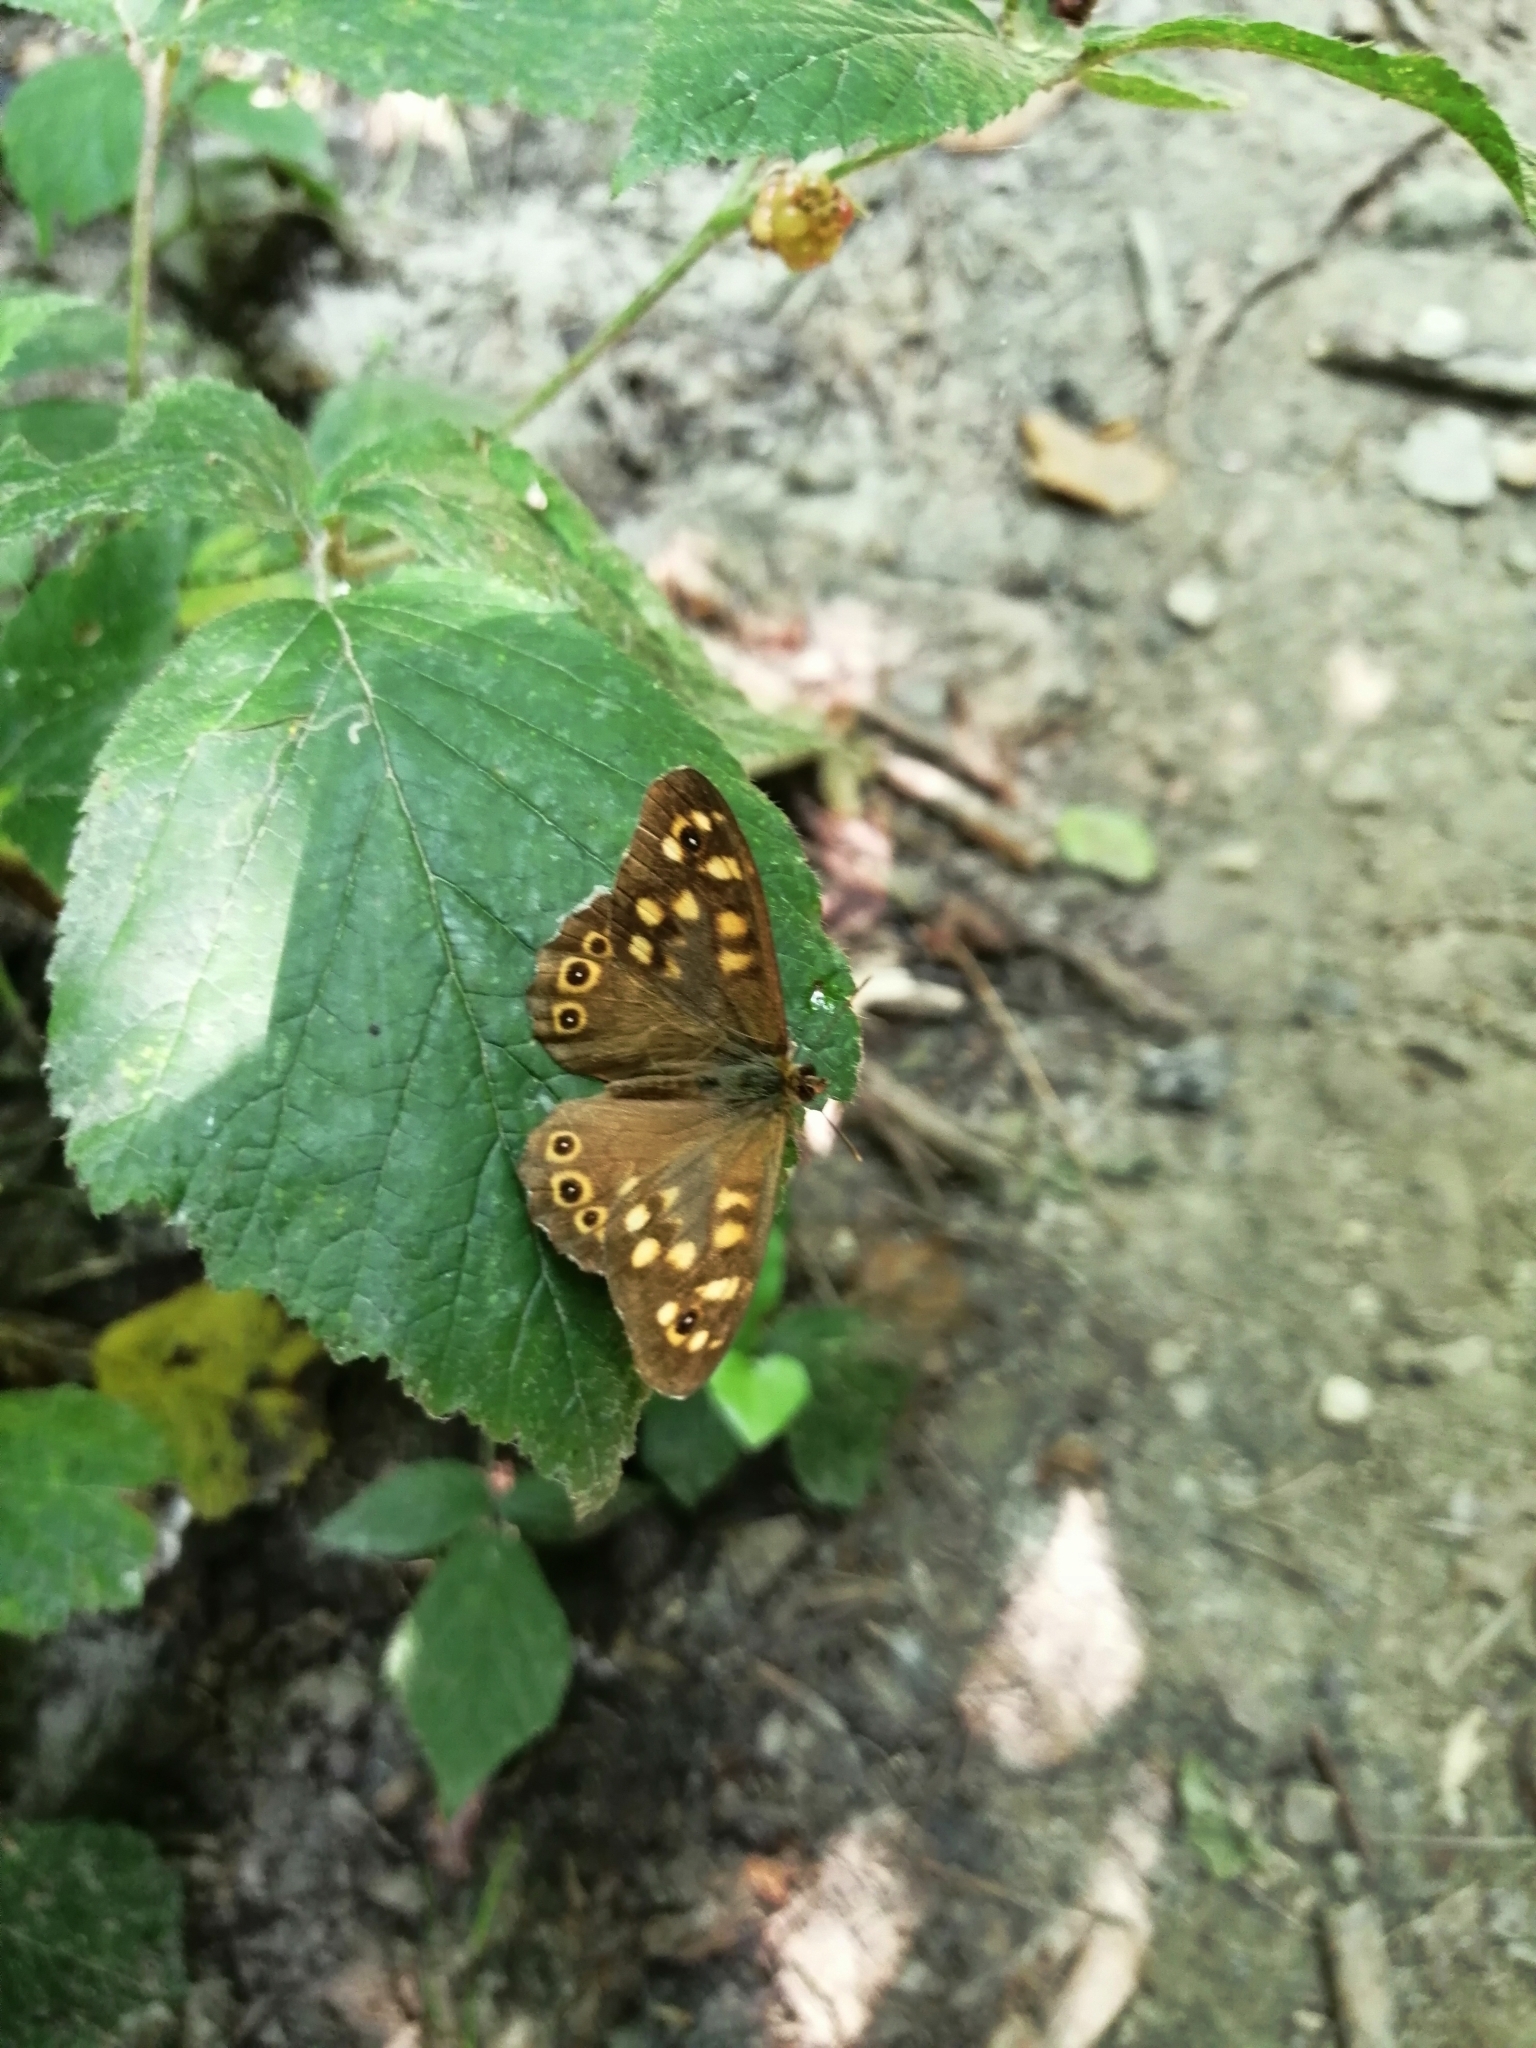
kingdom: Animalia
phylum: Arthropoda
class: Insecta
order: Lepidoptera
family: Nymphalidae
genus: Pararge
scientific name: Pararge aegeria
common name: Speckled wood
